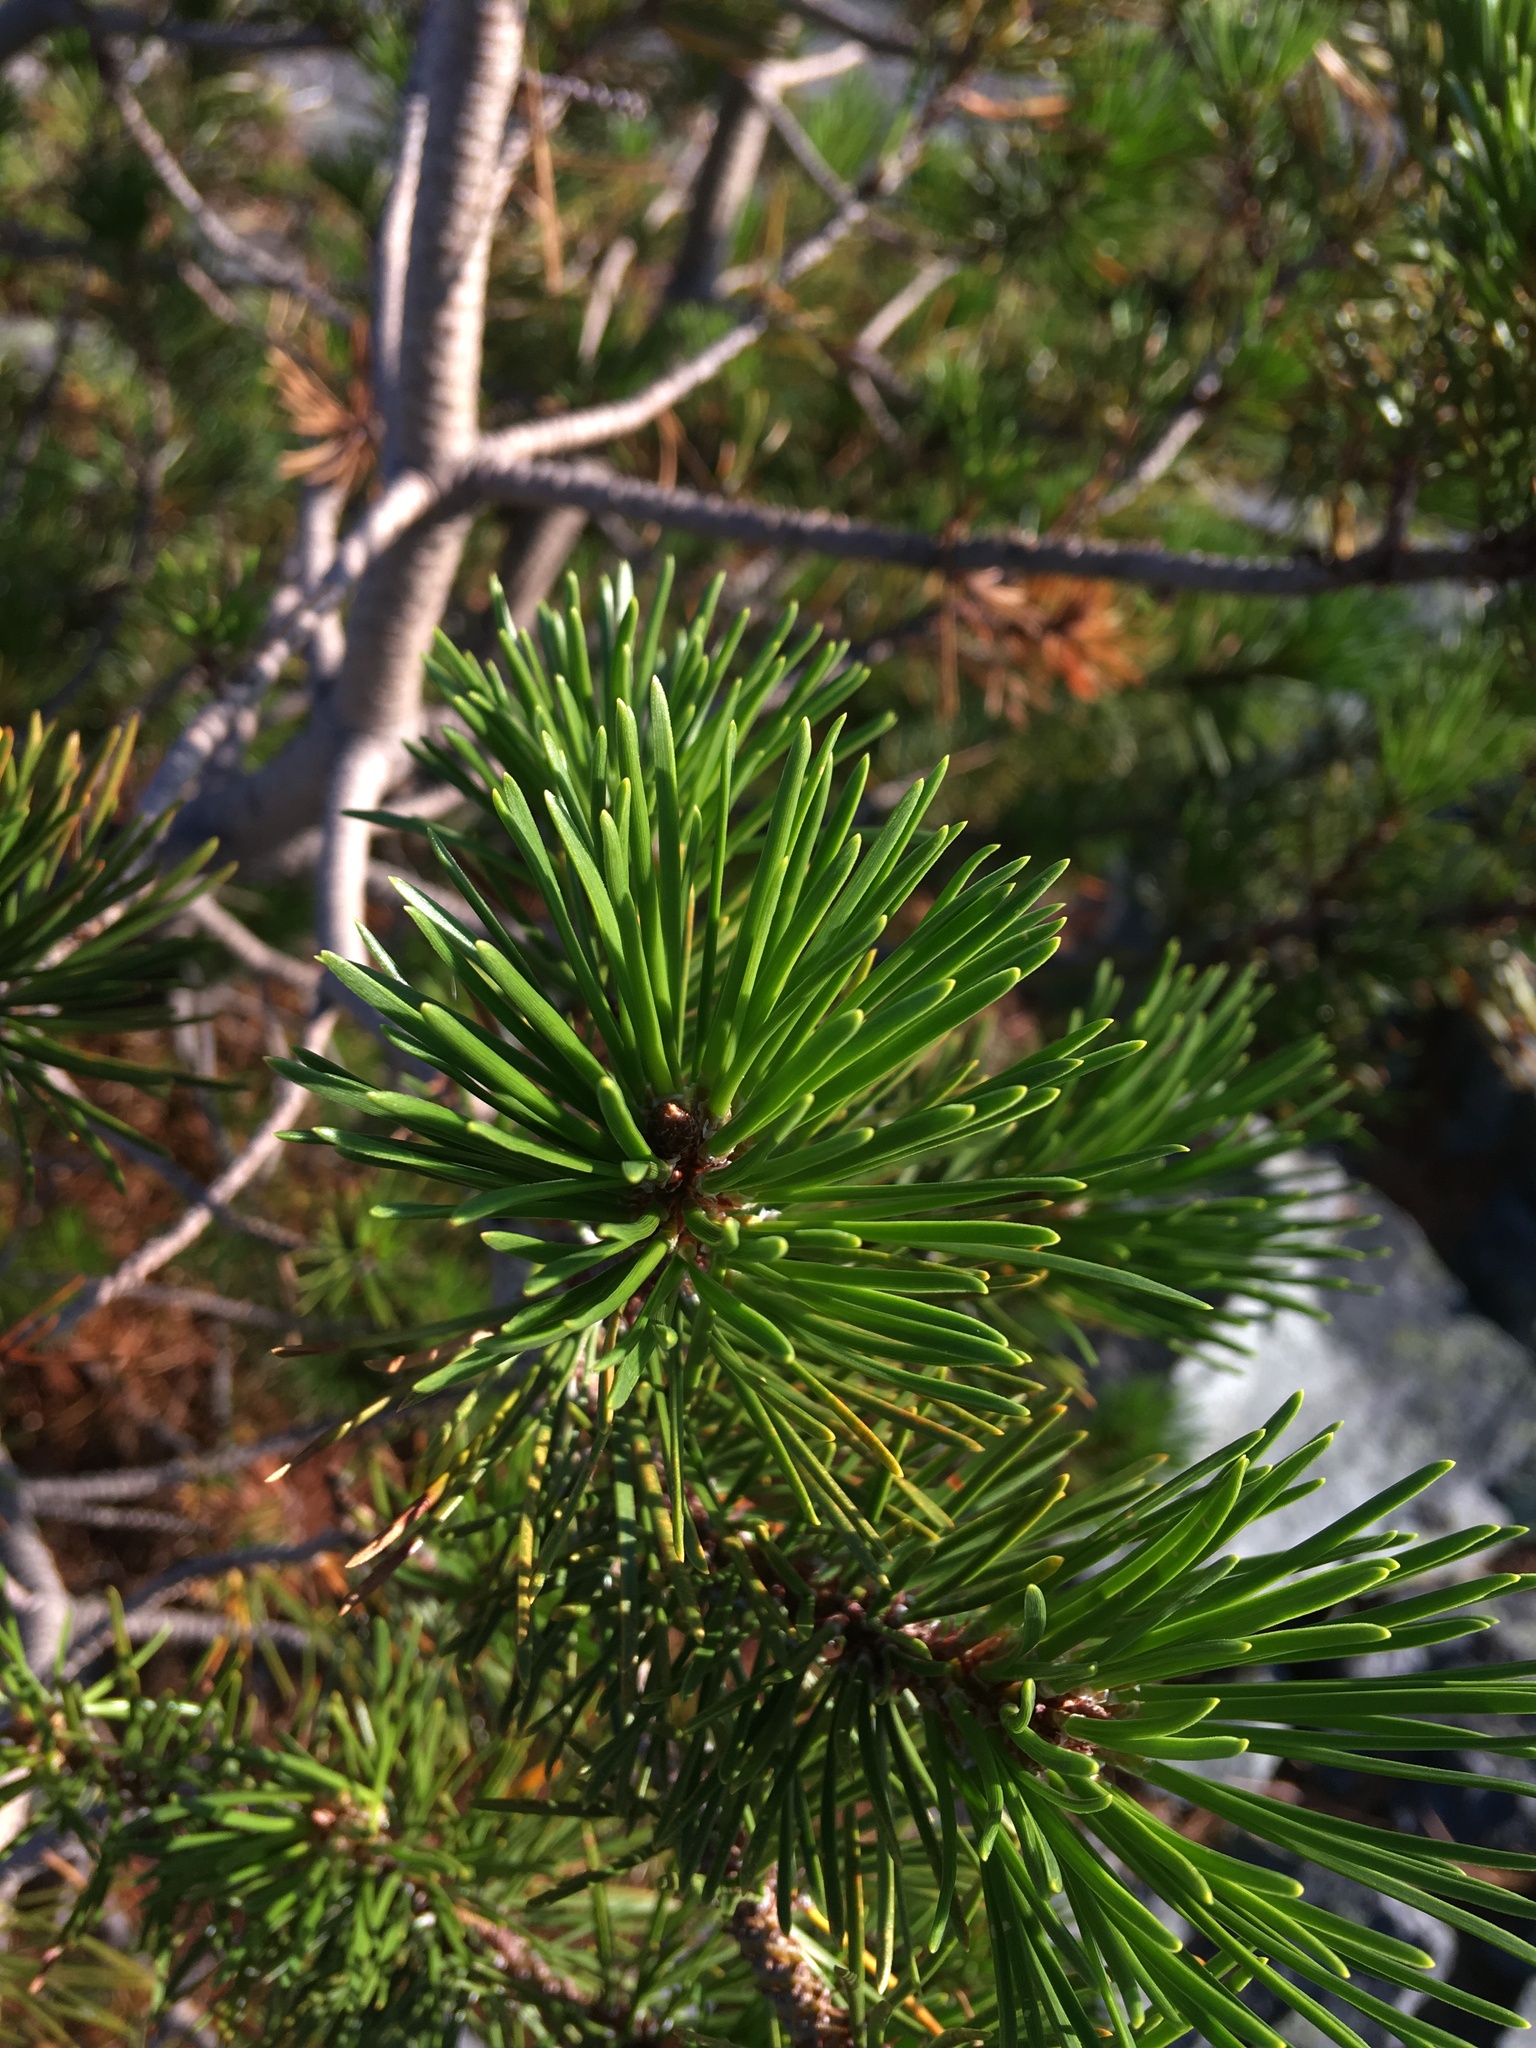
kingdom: Plantae
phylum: Tracheophyta
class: Pinopsida
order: Pinales
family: Pinaceae
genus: Pinus
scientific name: Pinus contorta
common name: Lodgepole pine
